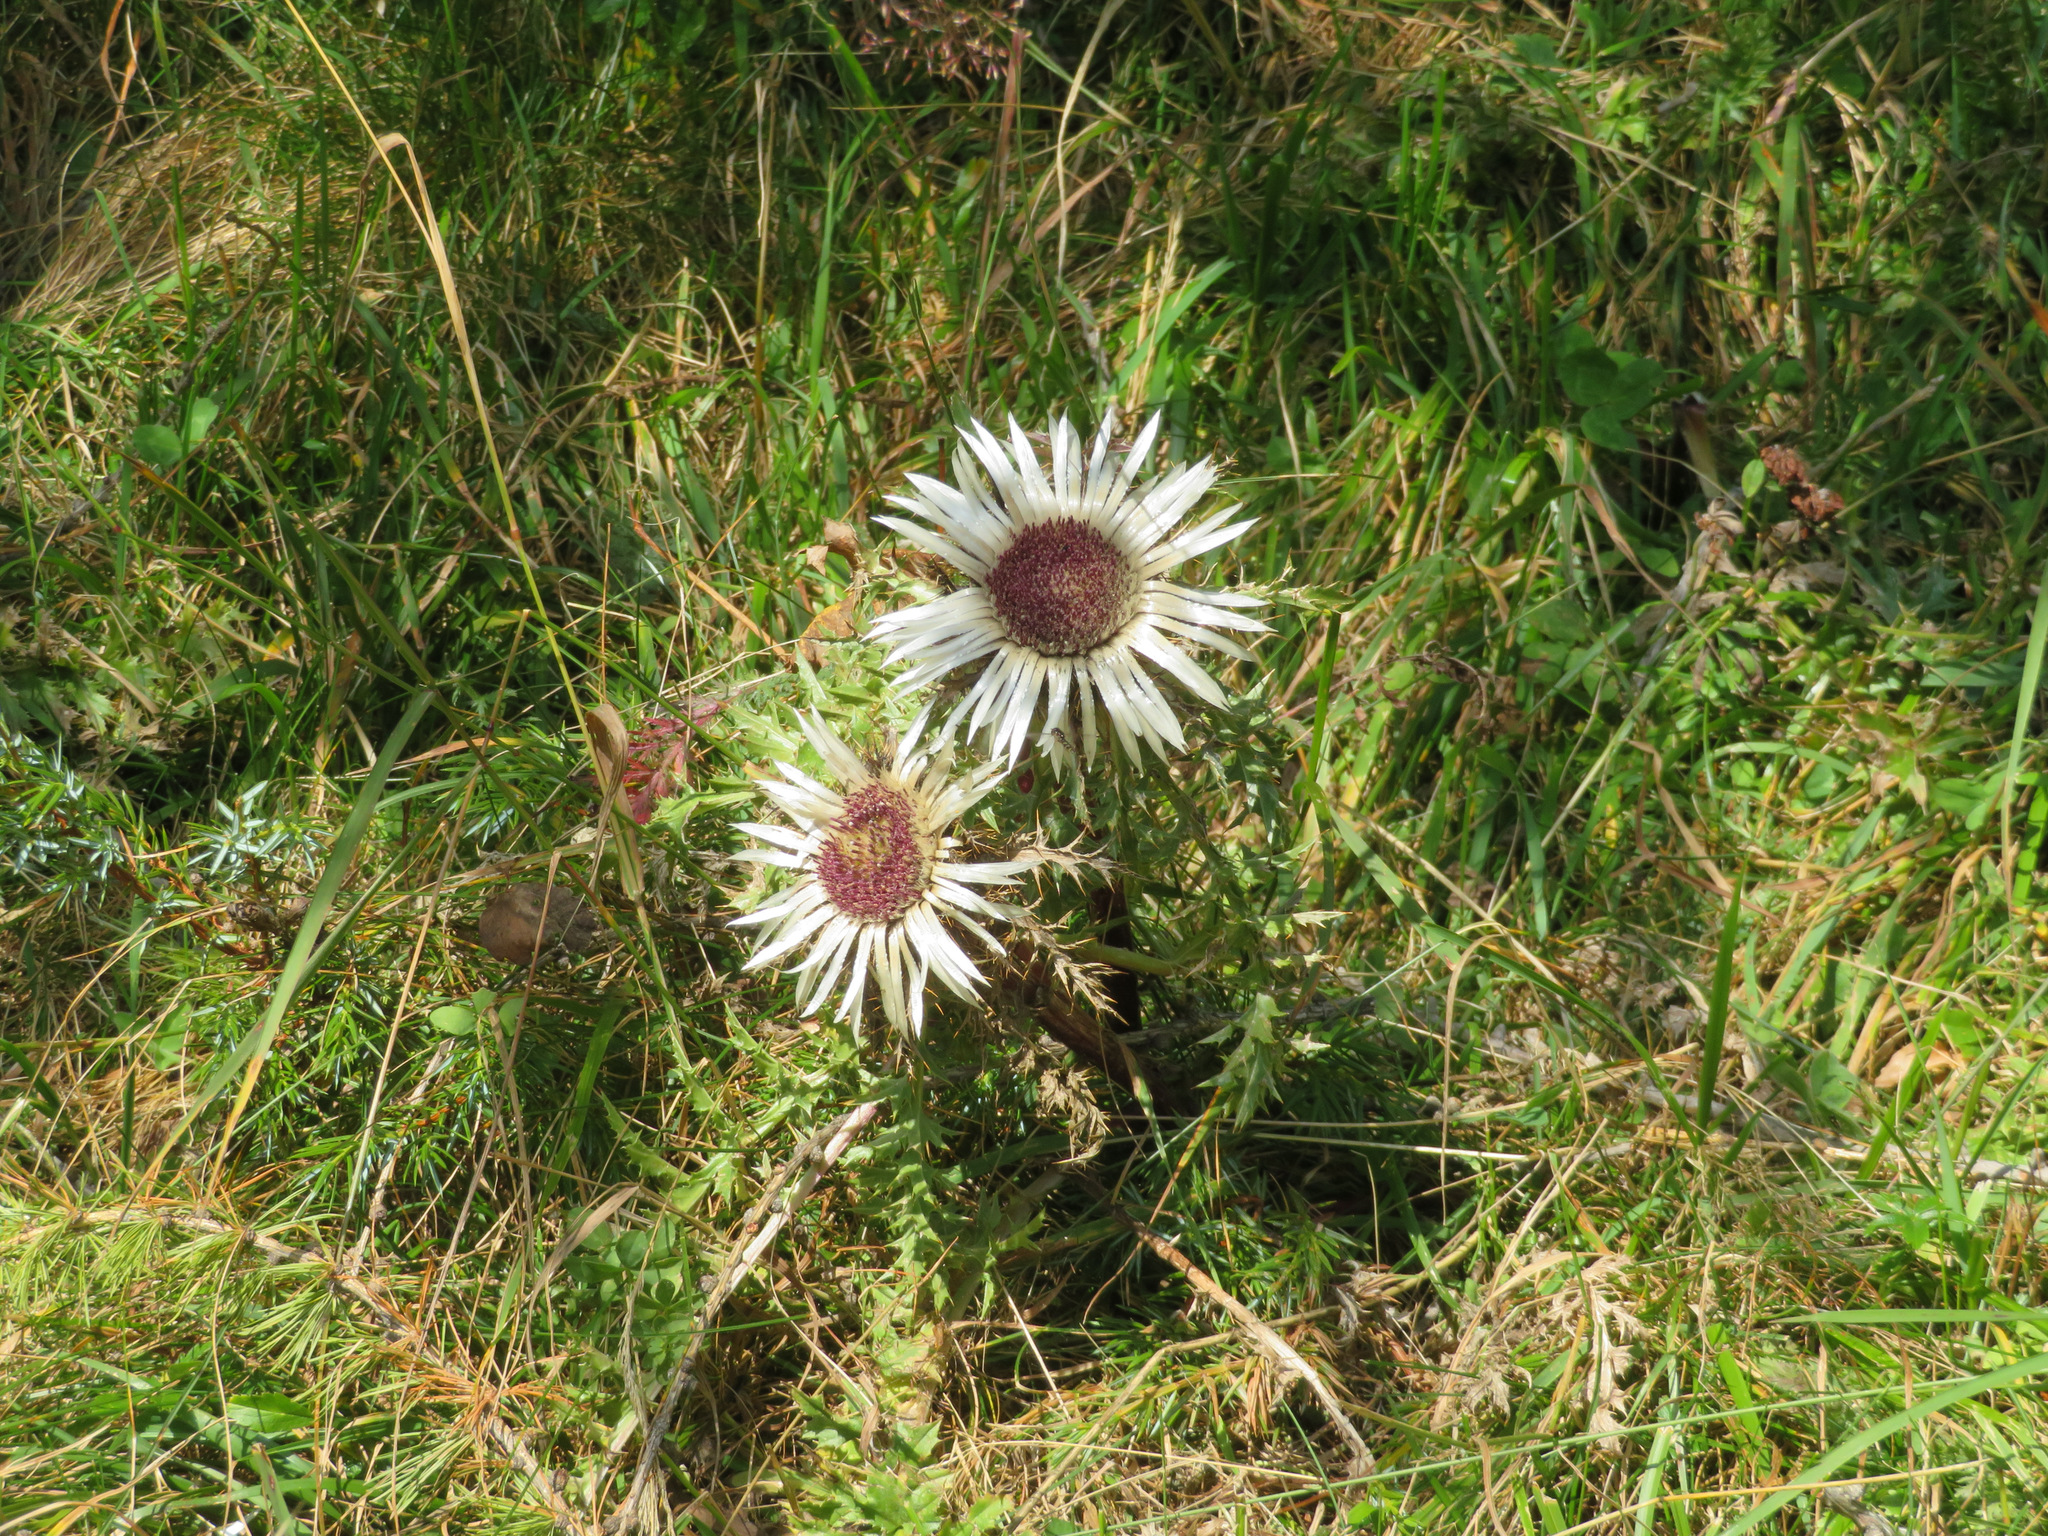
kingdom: Plantae
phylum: Tracheophyta
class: Magnoliopsida
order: Asterales
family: Asteraceae
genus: Carlina
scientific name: Carlina acaulis
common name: Stemless carline thistle
